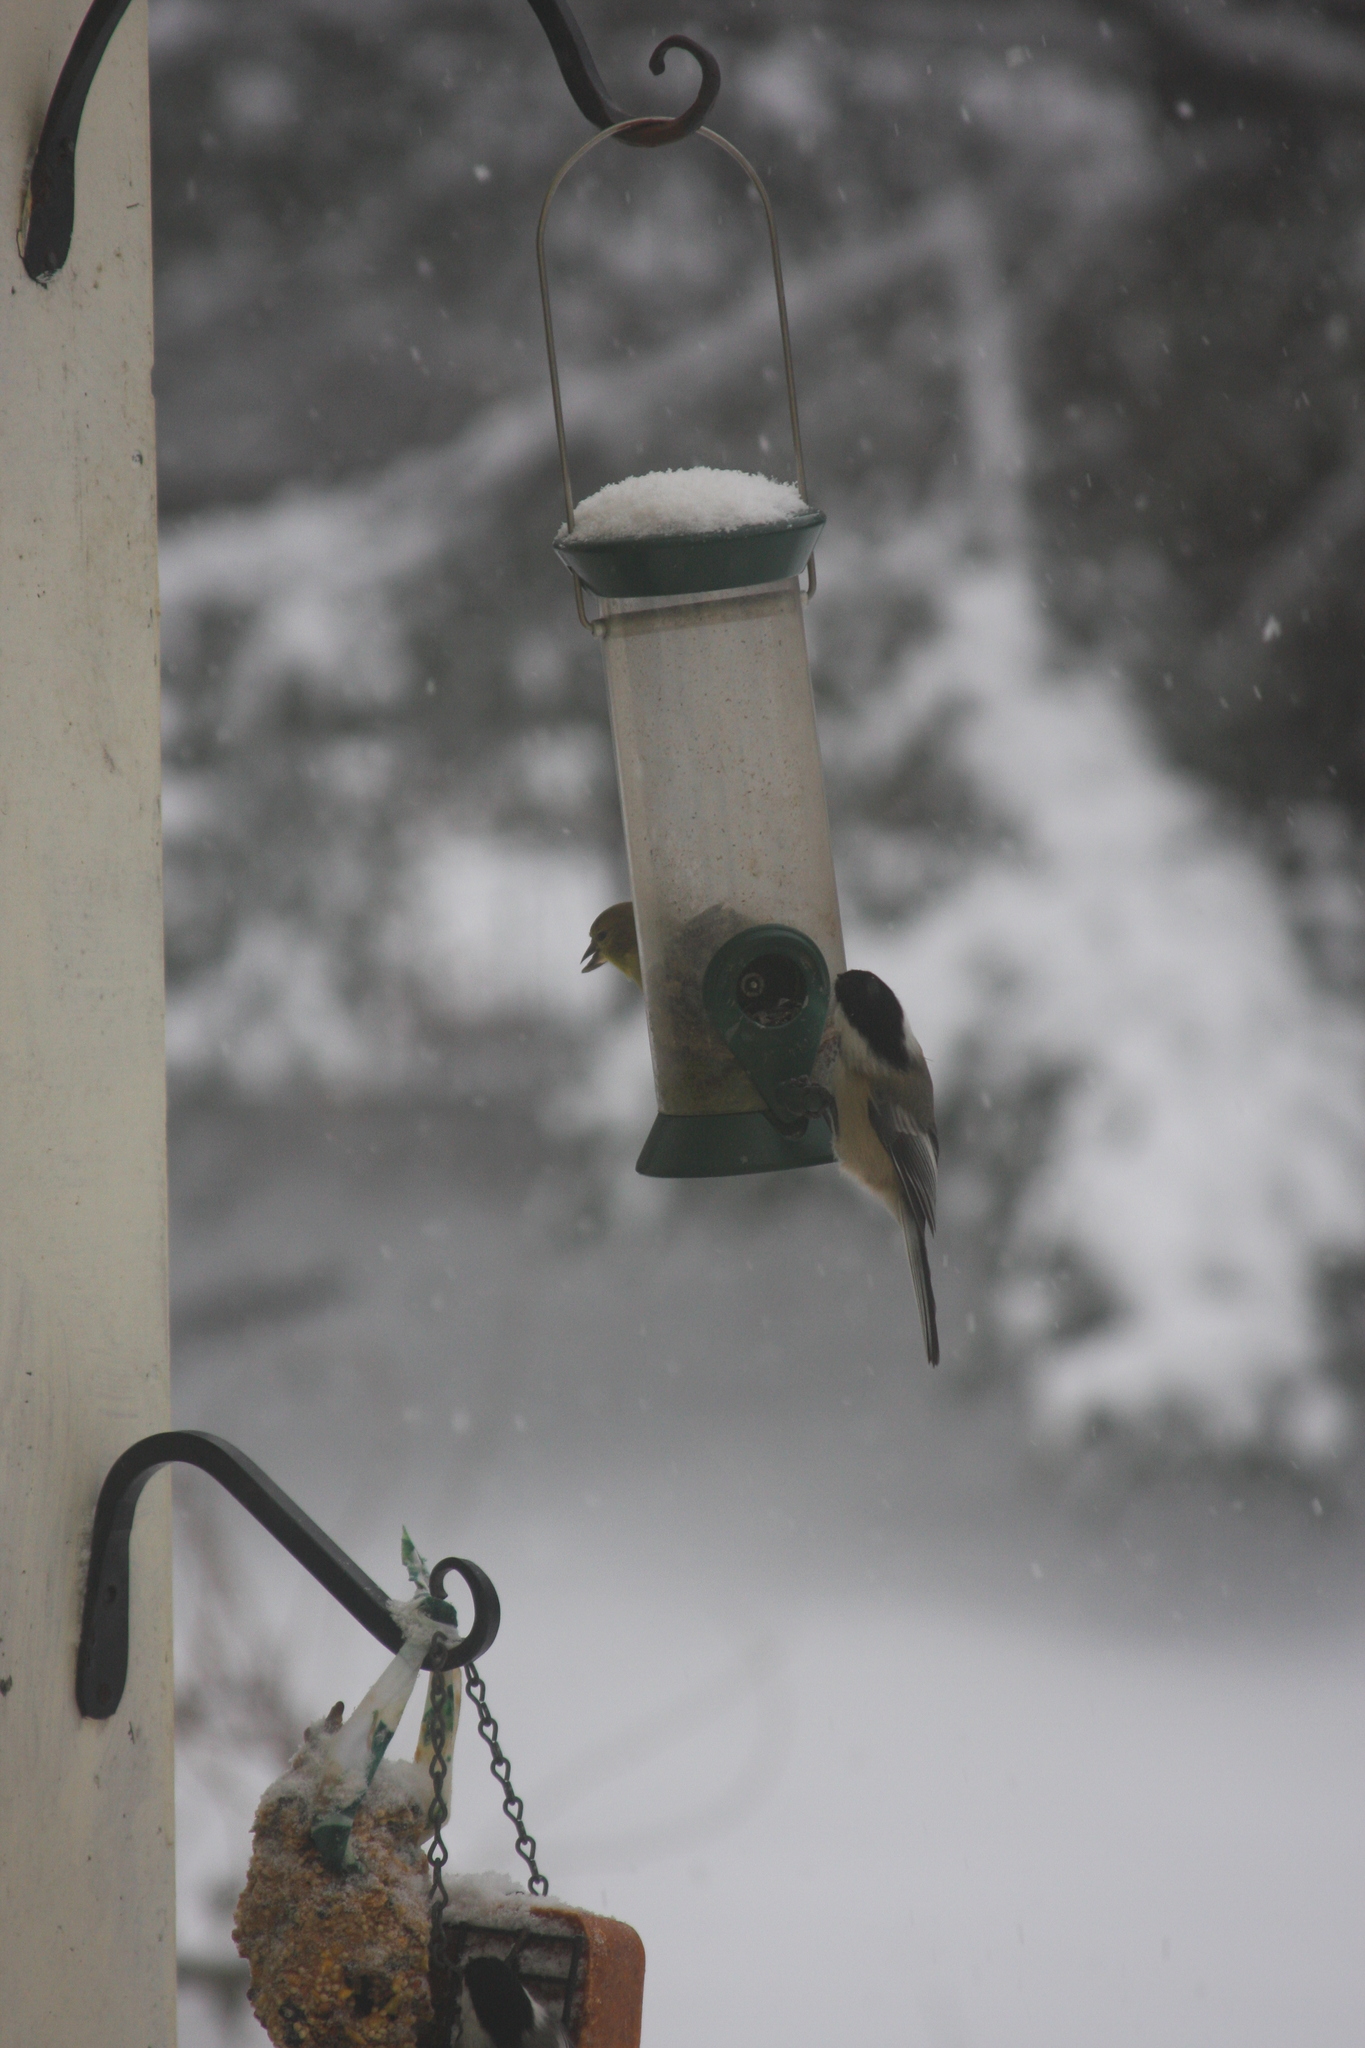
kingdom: Animalia
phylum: Chordata
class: Aves
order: Passeriformes
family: Fringillidae
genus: Spinus
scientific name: Spinus tristis
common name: American goldfinch
